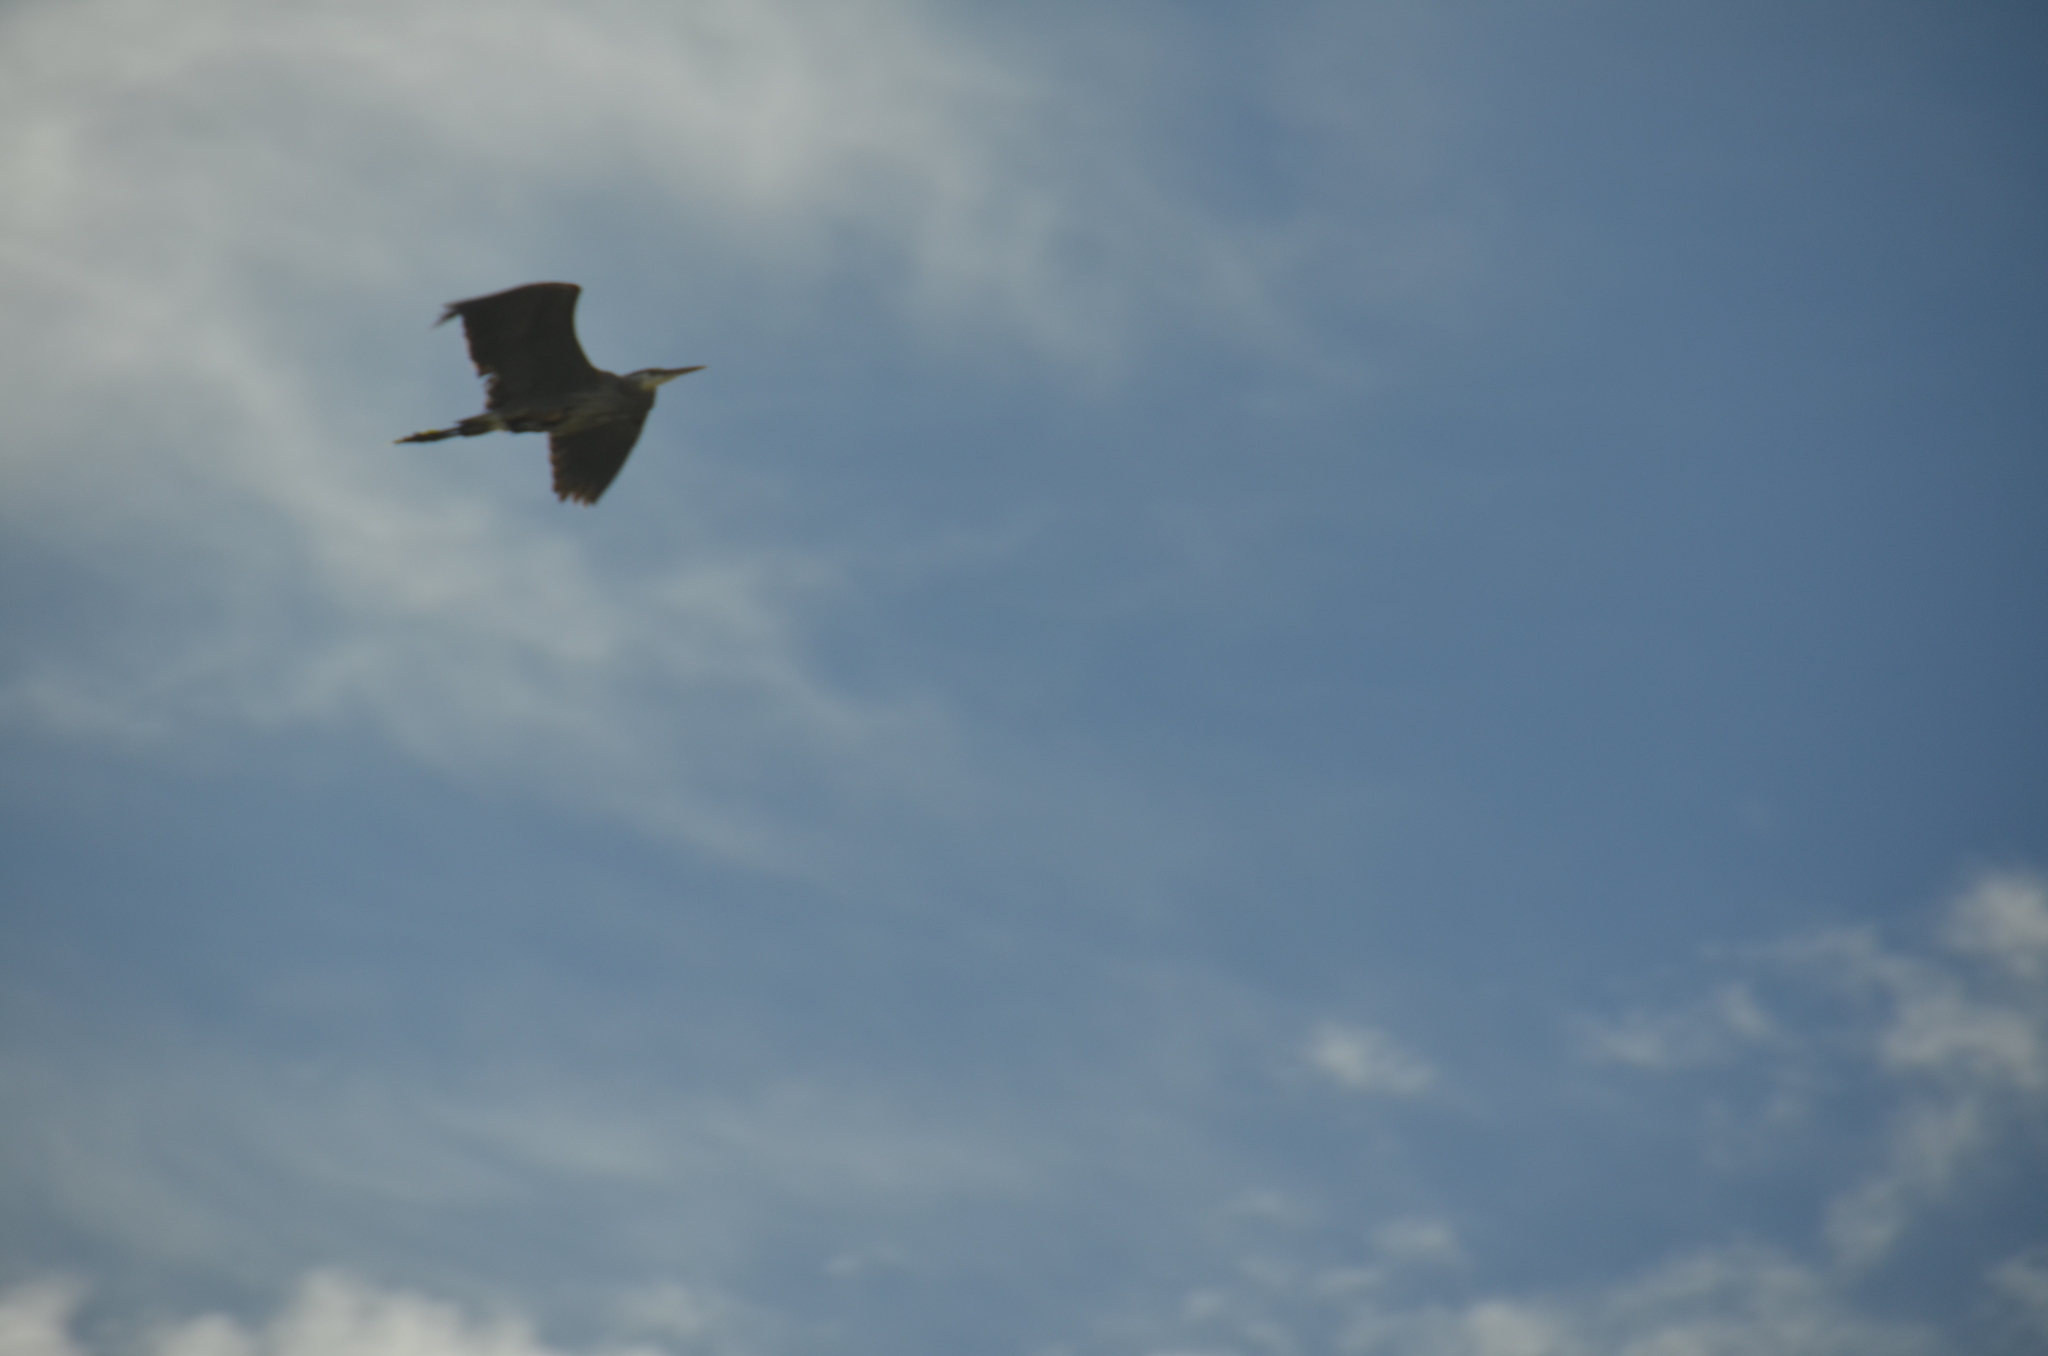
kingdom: Animalia
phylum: Chordata
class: Aves
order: Pelecaniformes
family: Ardeidae
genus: Ardea
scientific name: Ardea herodias
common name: Great blue heron
